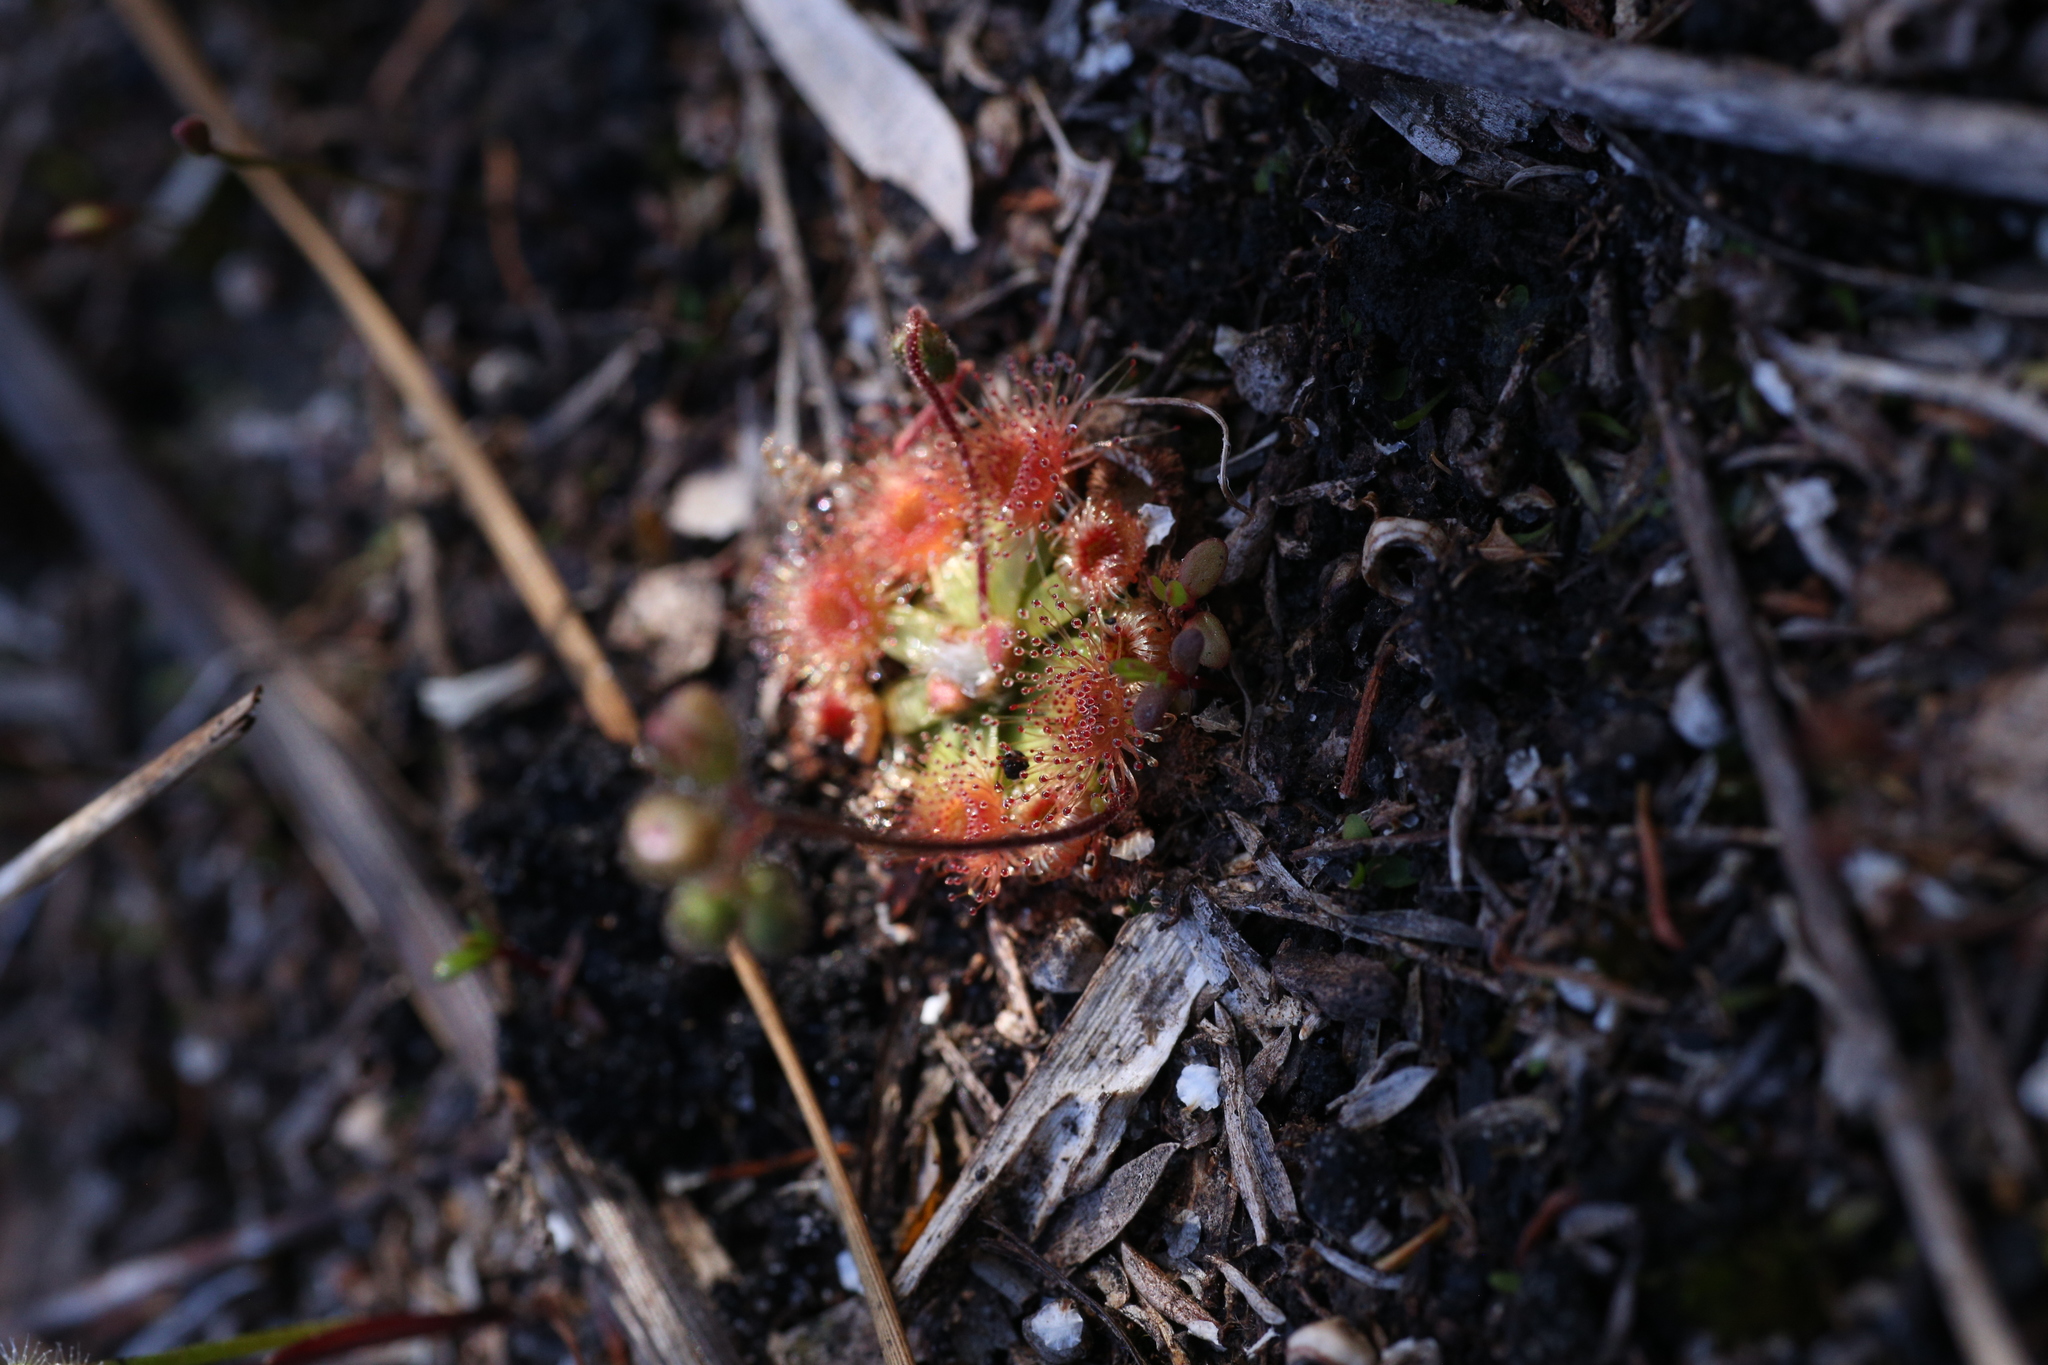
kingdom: Plantae
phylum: Tracheophyta
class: Magnoliopsida
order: Caryophyllales
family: Droseraceae
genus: Drosera
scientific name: Drosera pulchella
